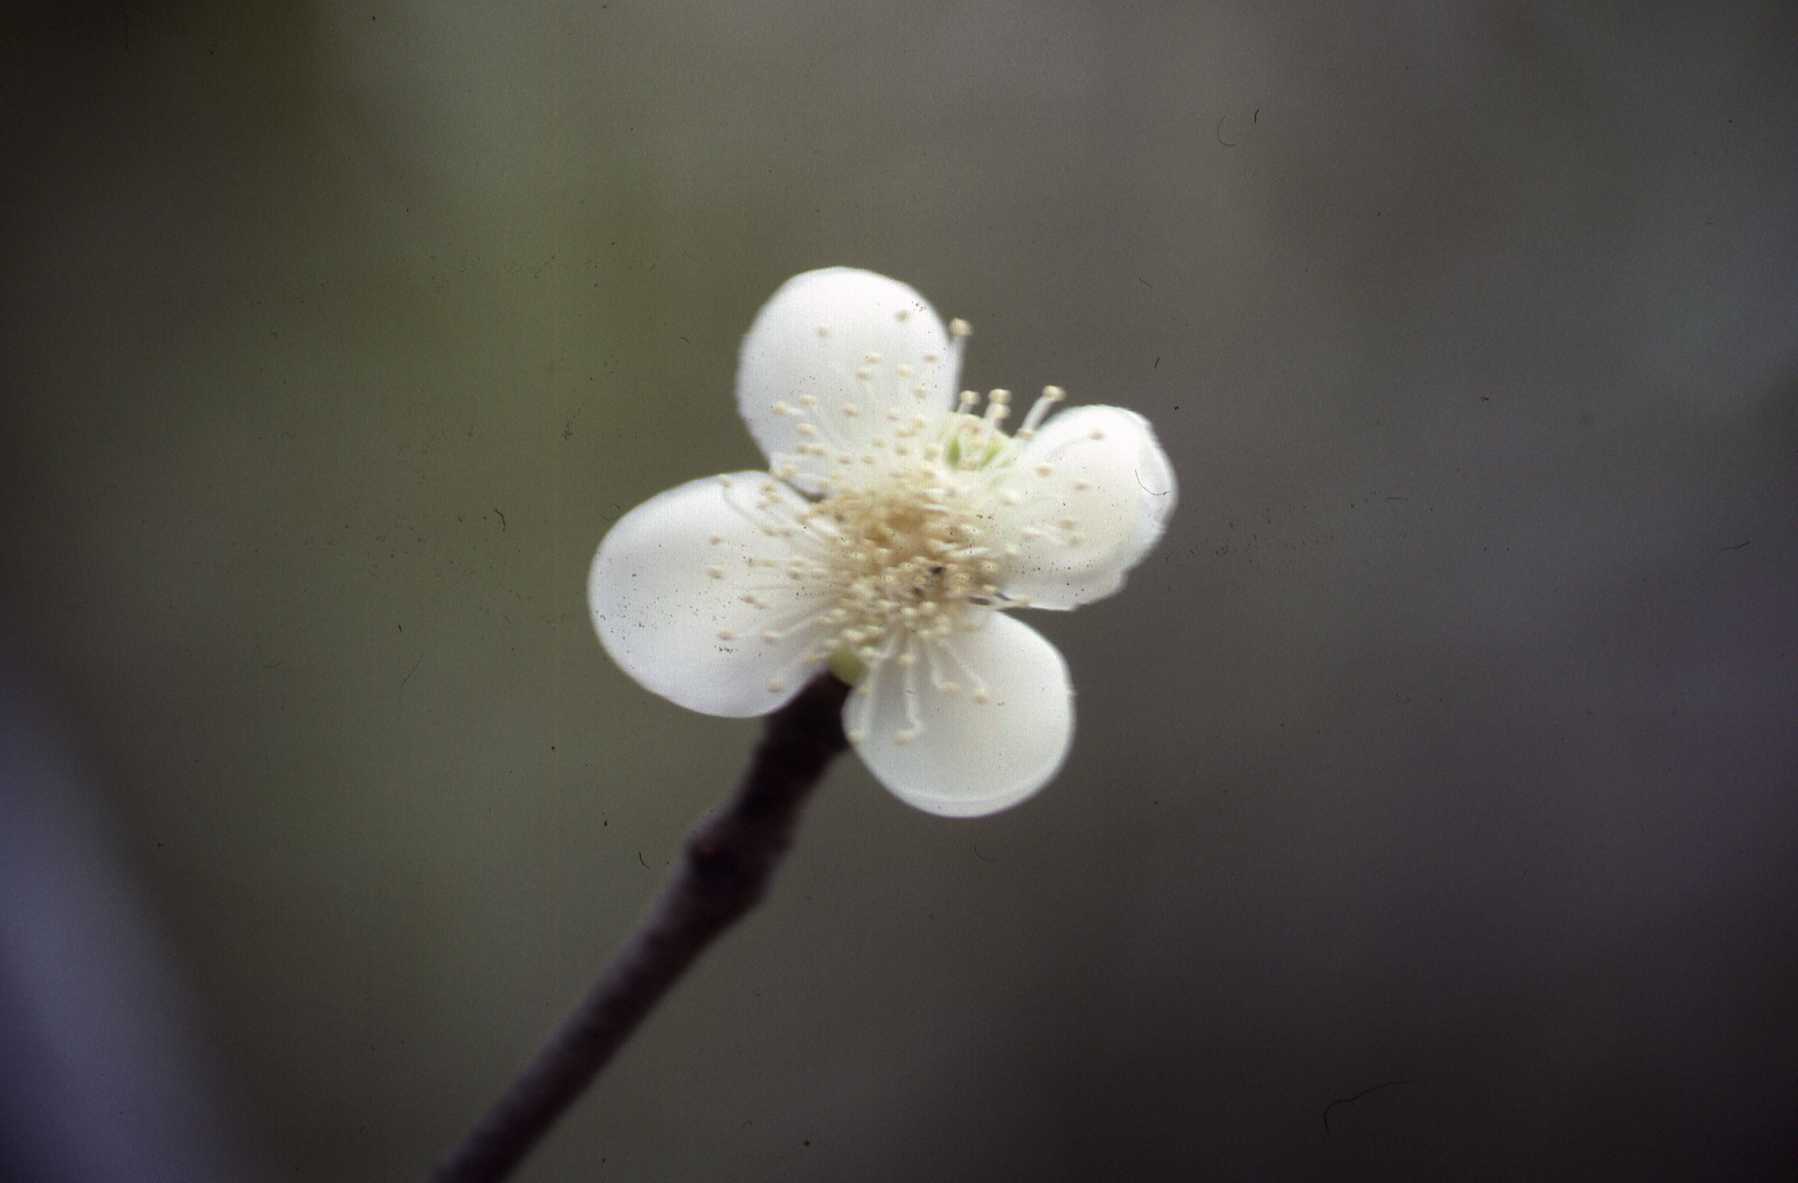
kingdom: Plantae
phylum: Tracheophyta
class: Magnoliopsida
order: Myrtales
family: Myrtaceae
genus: Eugenia
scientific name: Eugenia lucida
